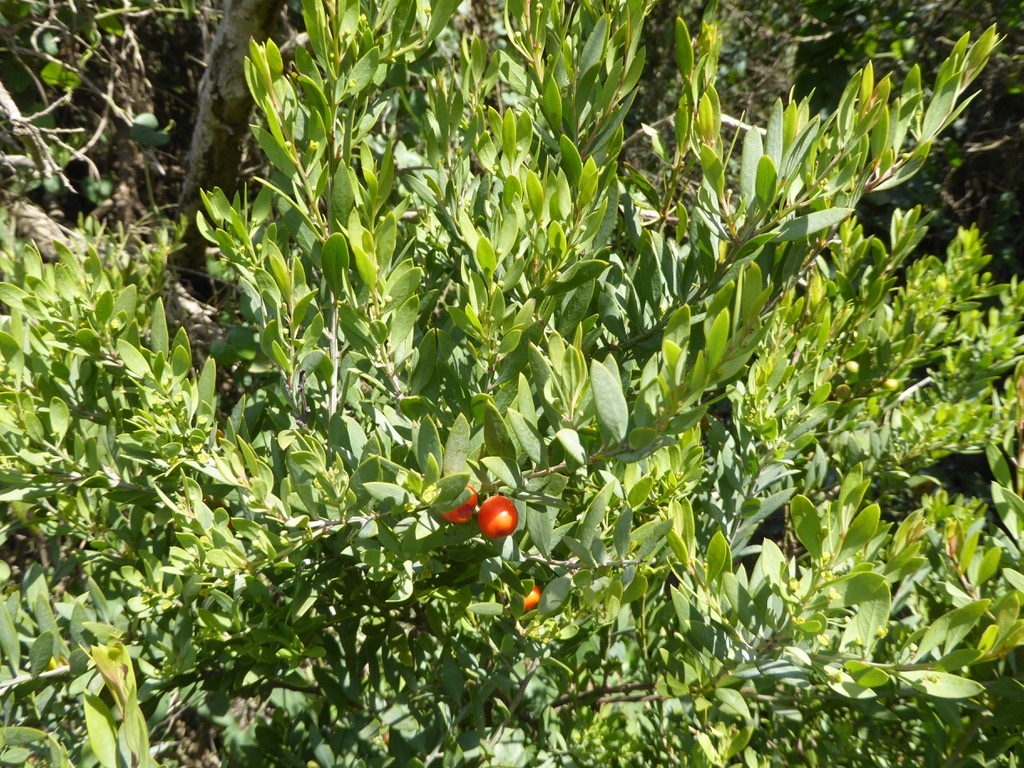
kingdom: Plantae
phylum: Tracheophyta
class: Magnoliopsida
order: Santalales
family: Santalaceae
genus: Osyris
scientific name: Osyris lanceolata
